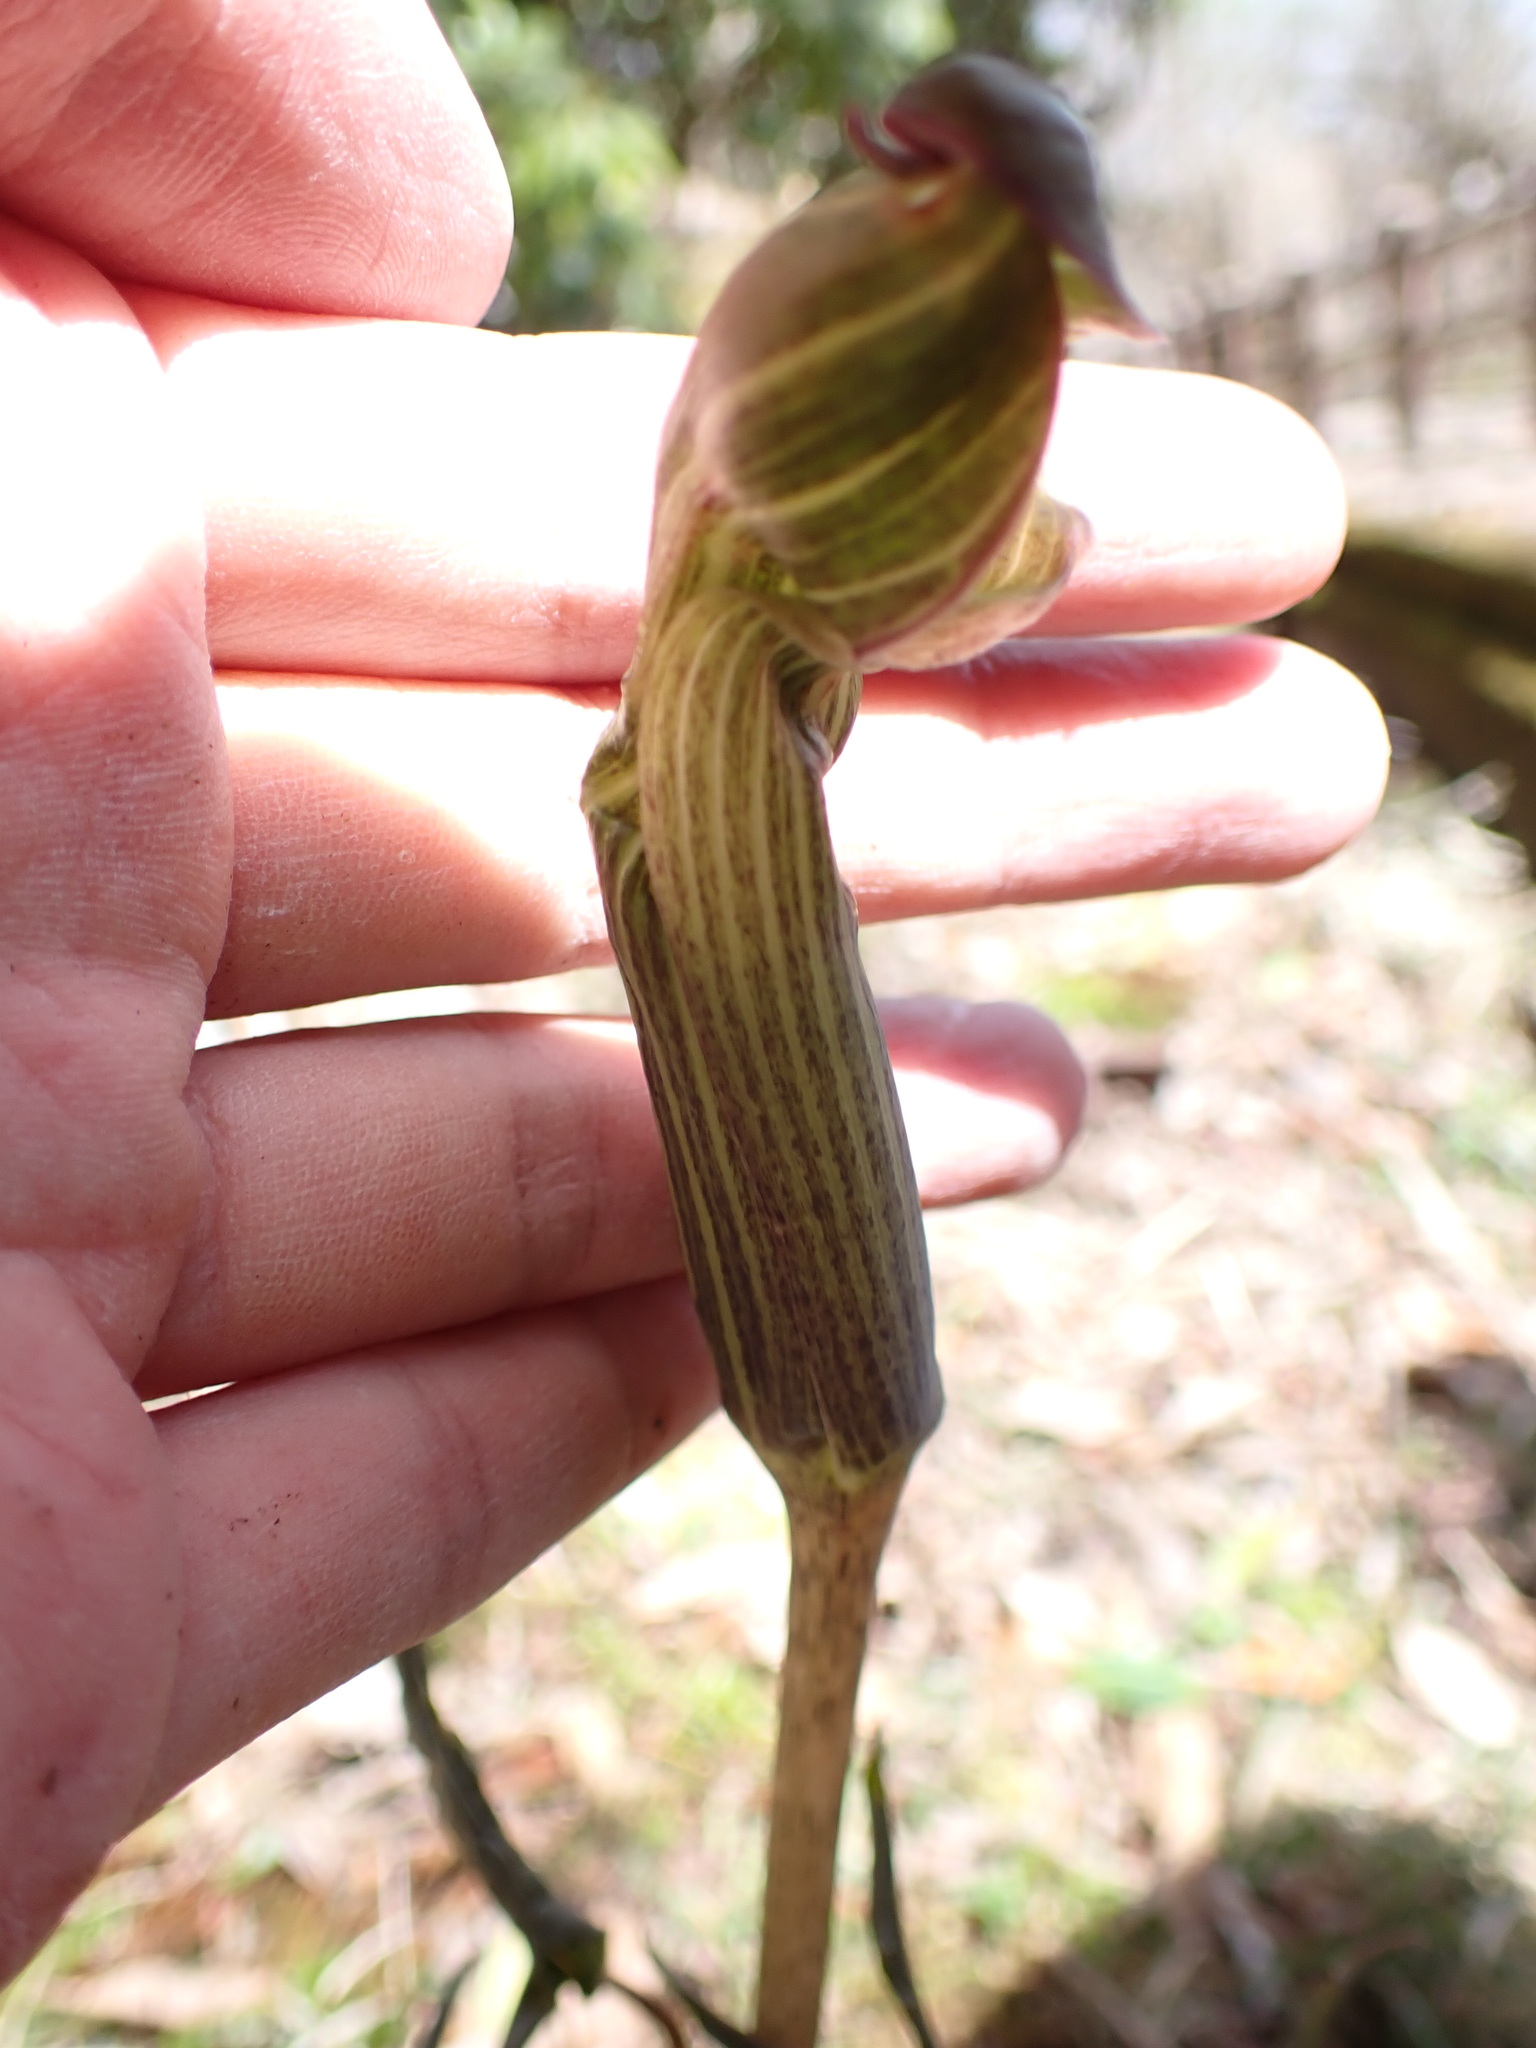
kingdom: Plantae
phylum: Tracheophyta
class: Liliopsida
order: Alismatales
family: Araceae
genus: Arisaema
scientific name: Arisaema japonicum
